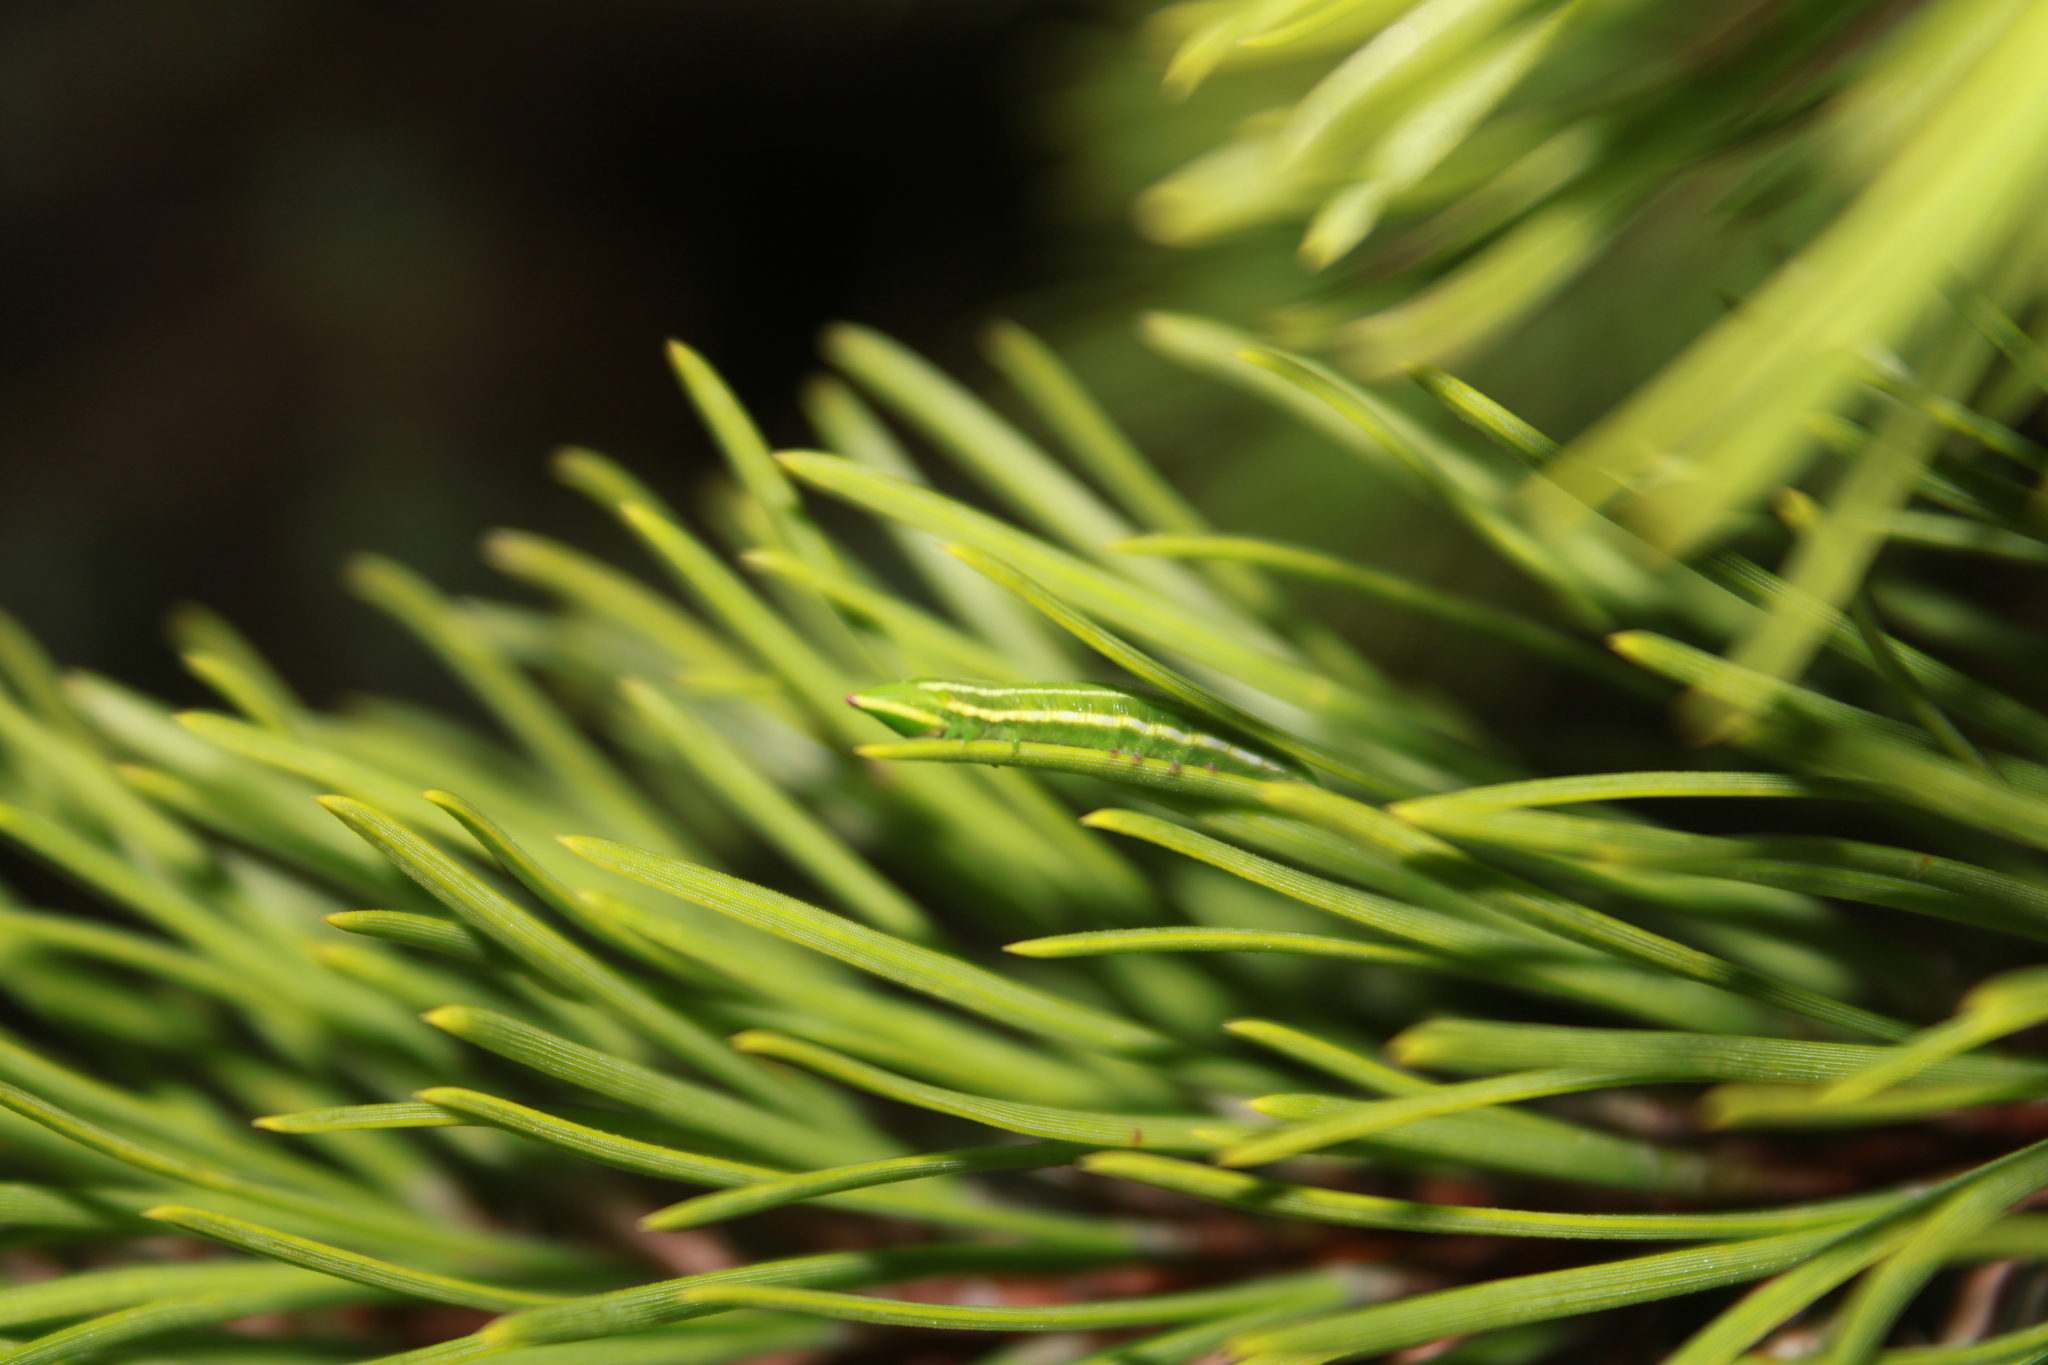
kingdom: Animalia
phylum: Arthropoda
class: Insecta
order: Lepidoptera
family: Sphingidae
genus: Lapara
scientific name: Lapara bombycoides
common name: Northern pine sphinx
